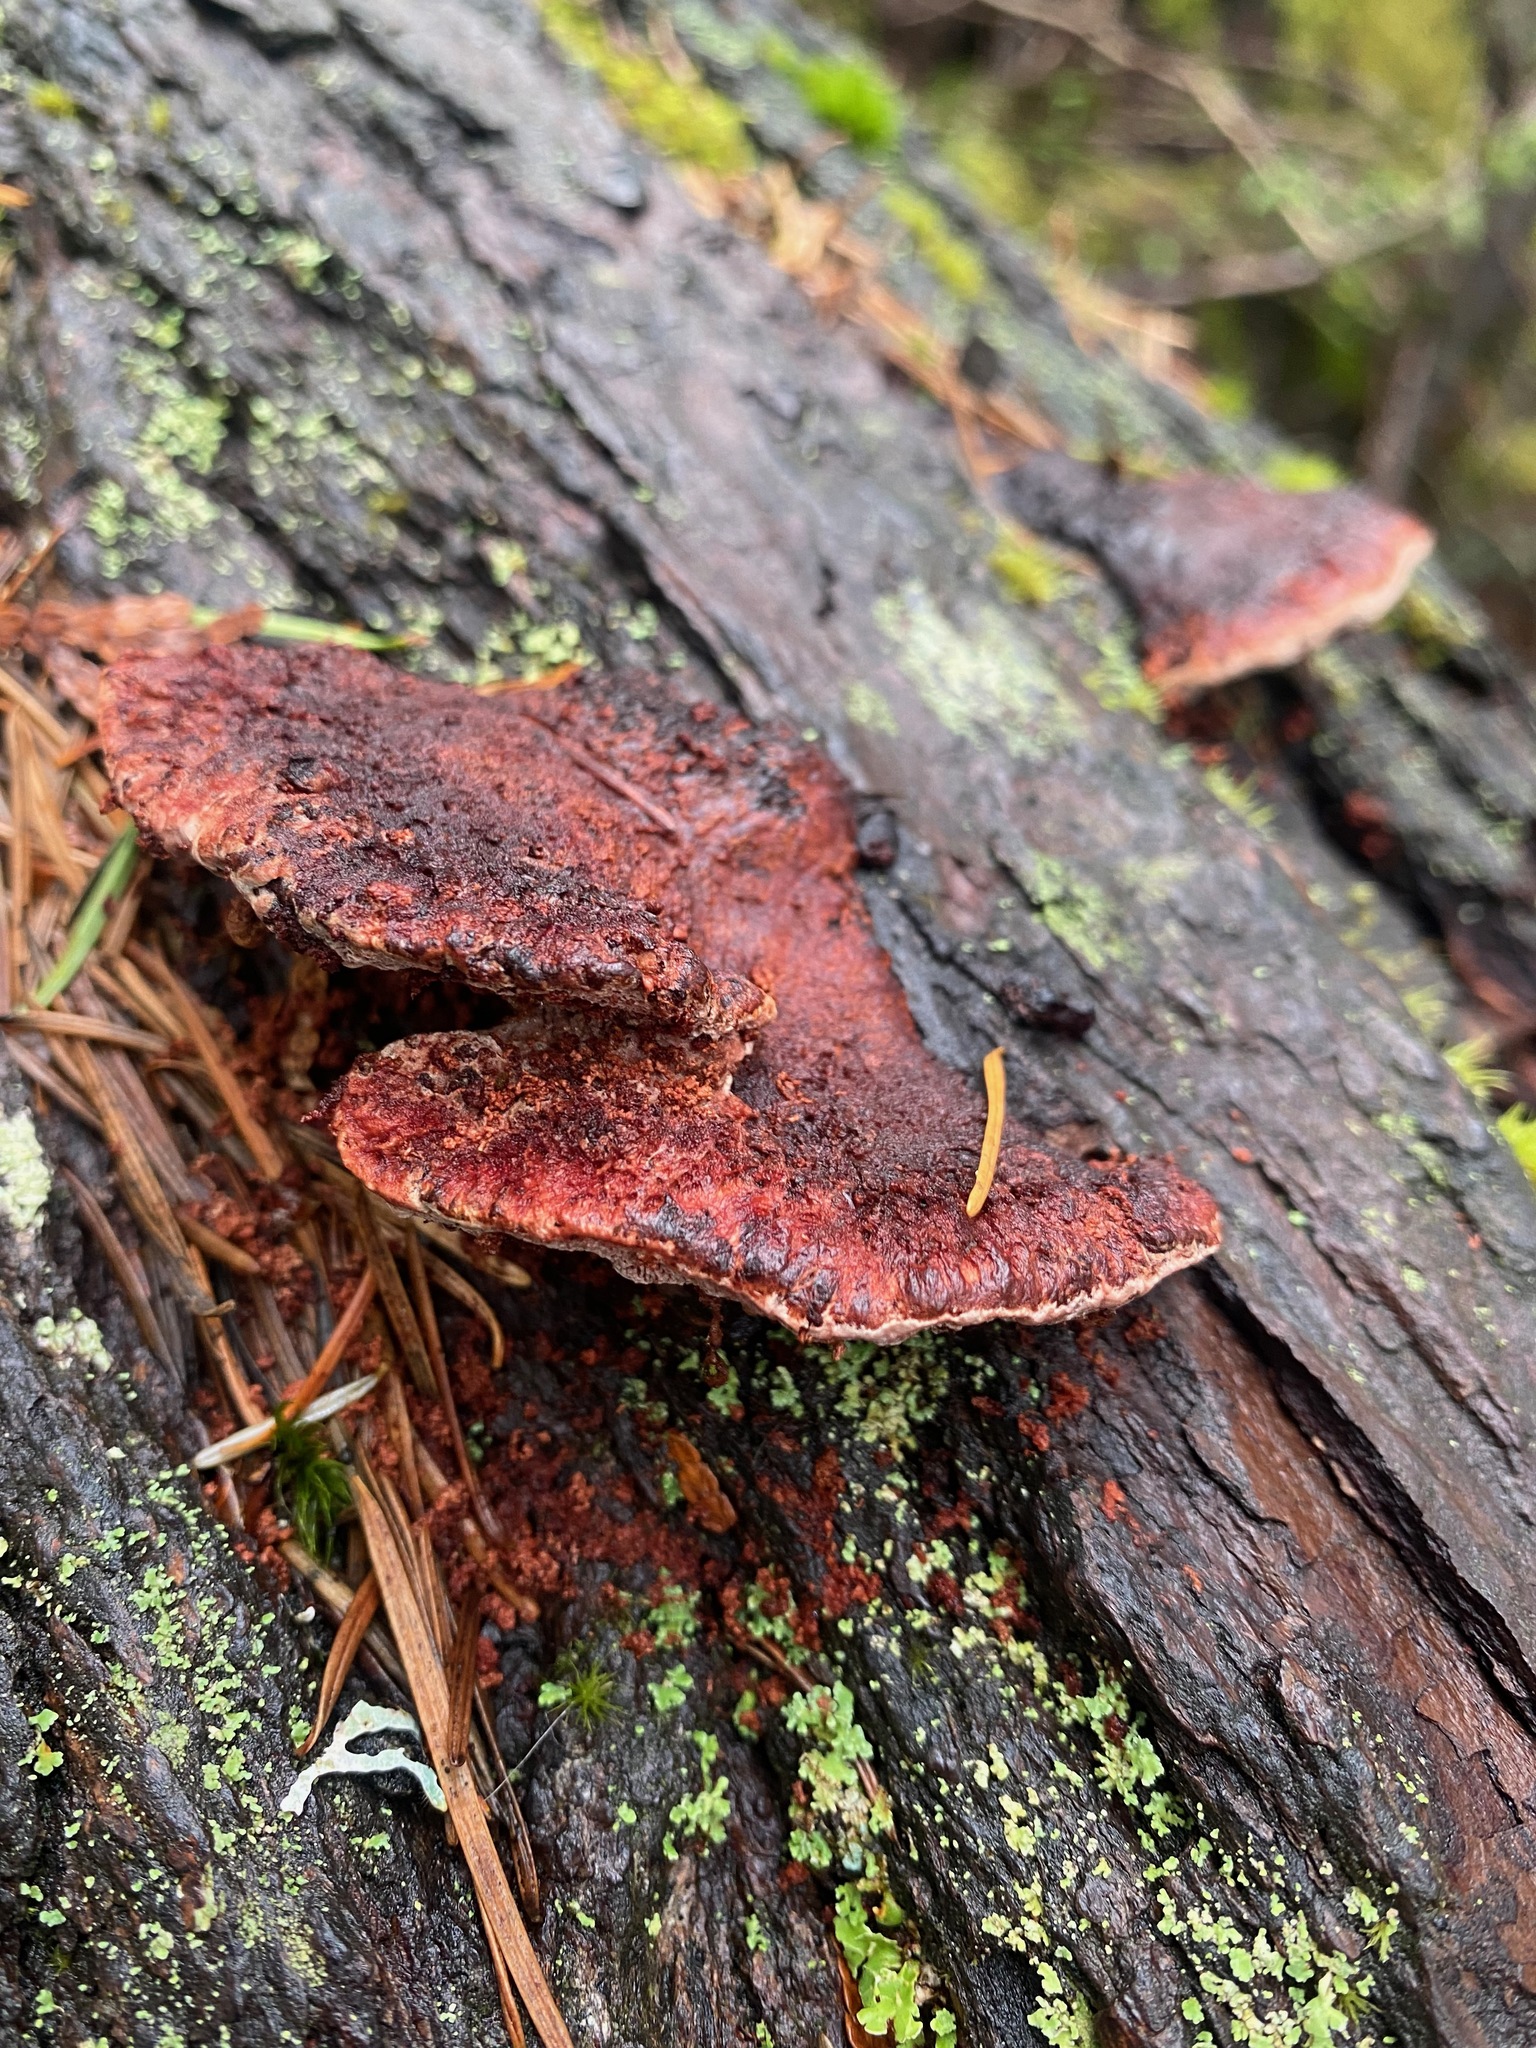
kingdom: Fungi
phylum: Basidiomycota
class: Agaricomycetes
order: Polyporales
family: Fomitopsidaceae
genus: Rhodofomes
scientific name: Rhodofomes cajanderi
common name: Rosy conk
